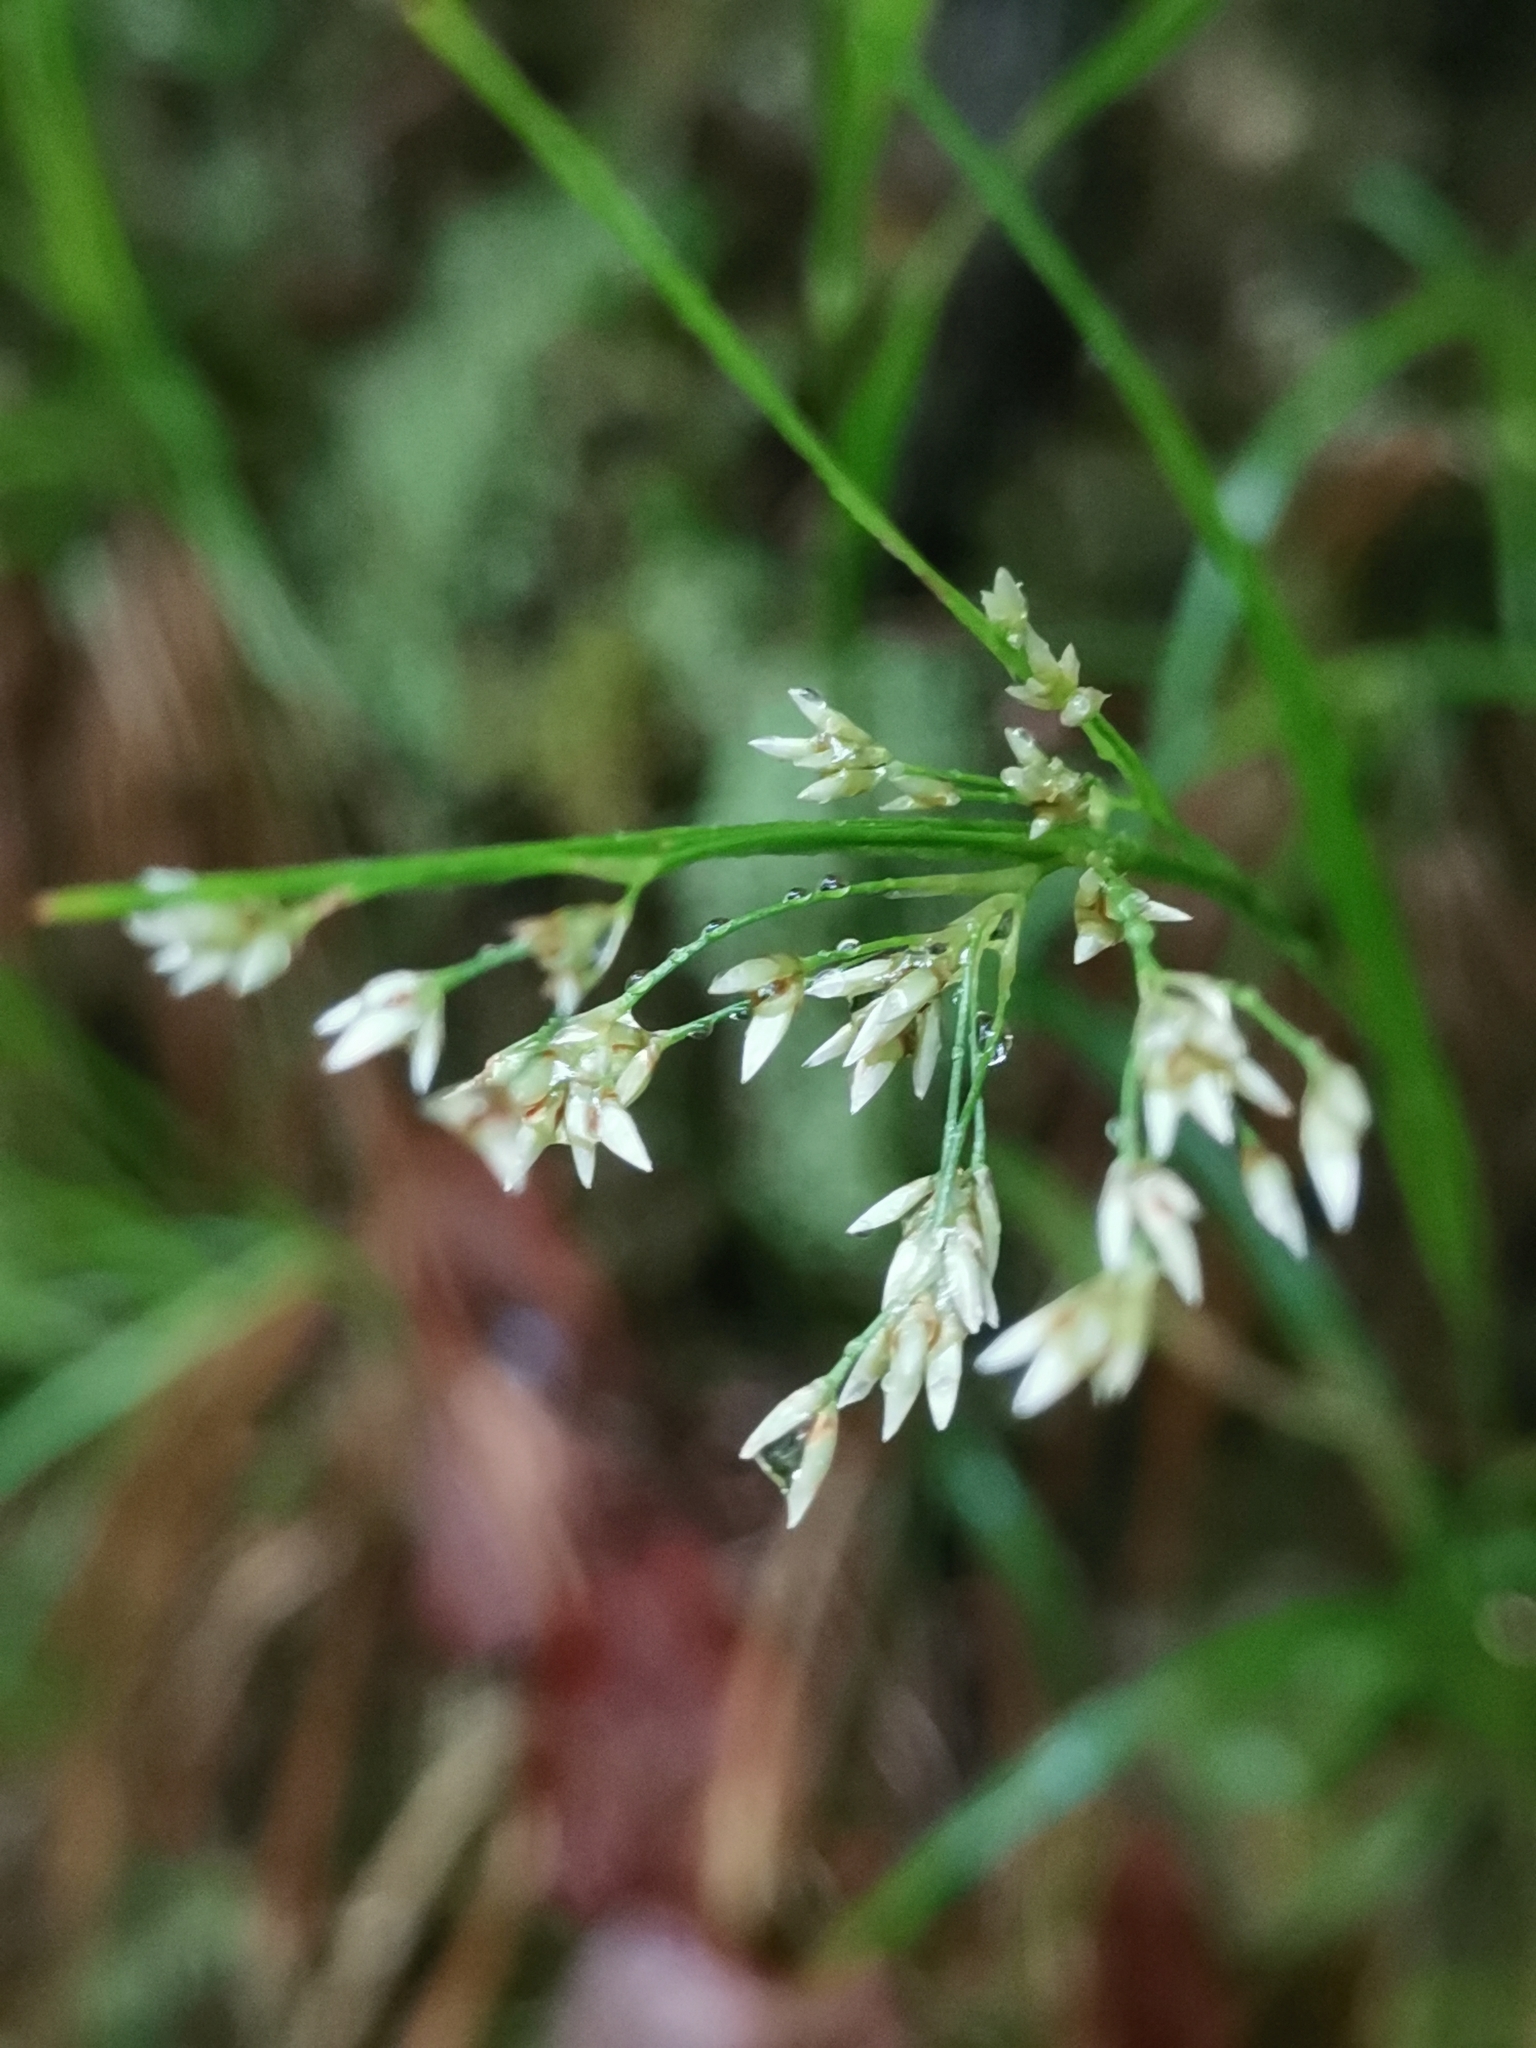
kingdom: Plantae
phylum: Tracheophyta
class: Liliopsida
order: Poales
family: Juncaceae
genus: Luzula
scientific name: Luzula luzuloides
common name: White wood-rush
